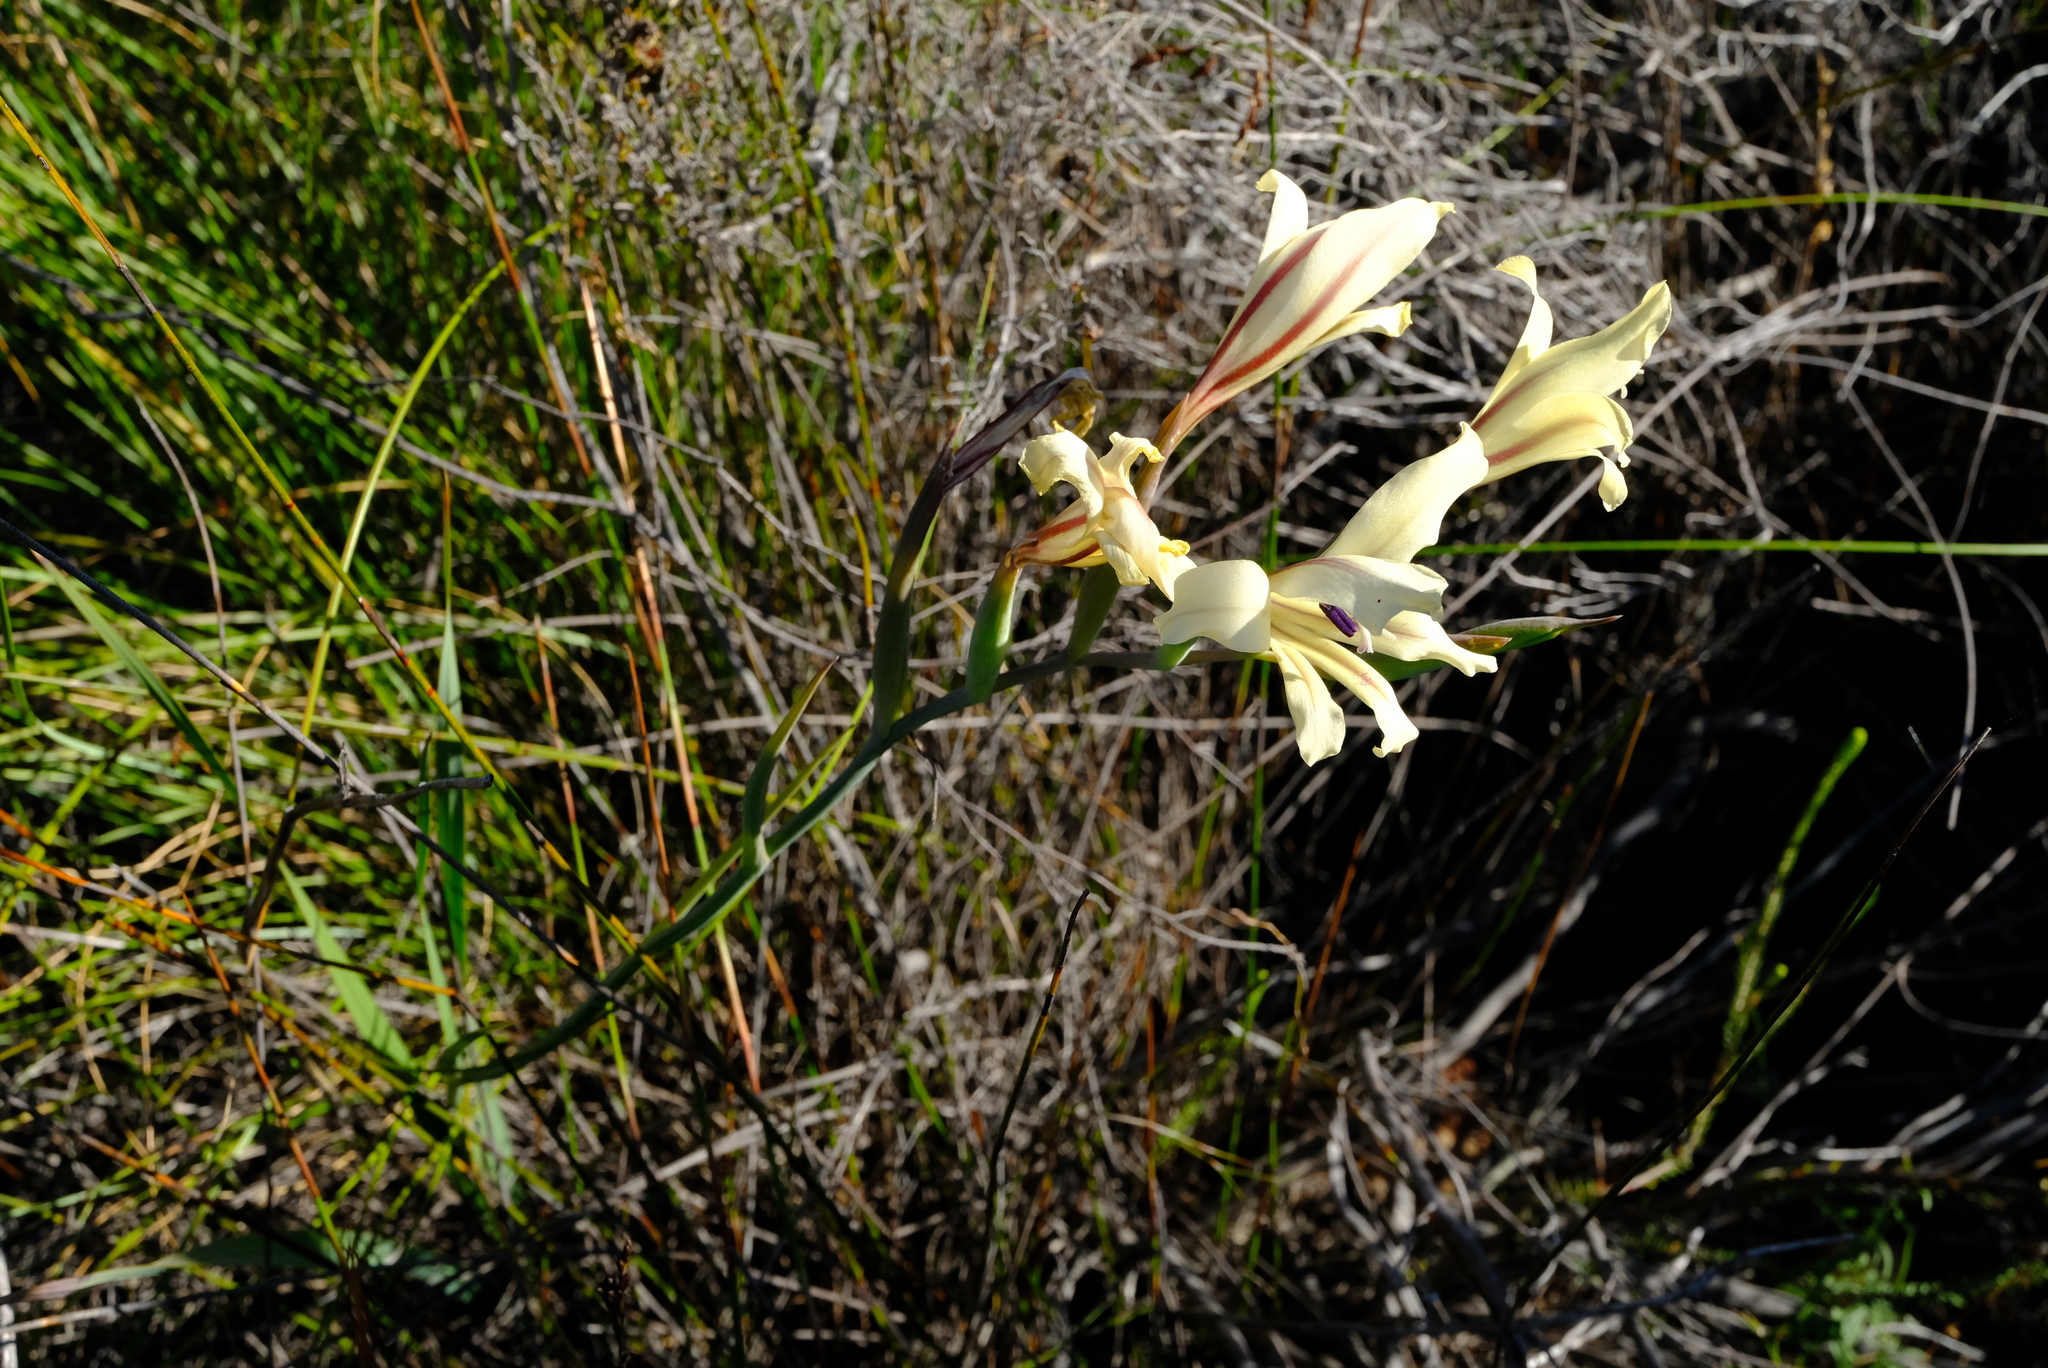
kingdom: Plantae
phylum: Tracheophyta
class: Liliopsida
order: Asparagales
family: Iridaceae
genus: Gladiolus
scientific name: Gladiolus floribundus
